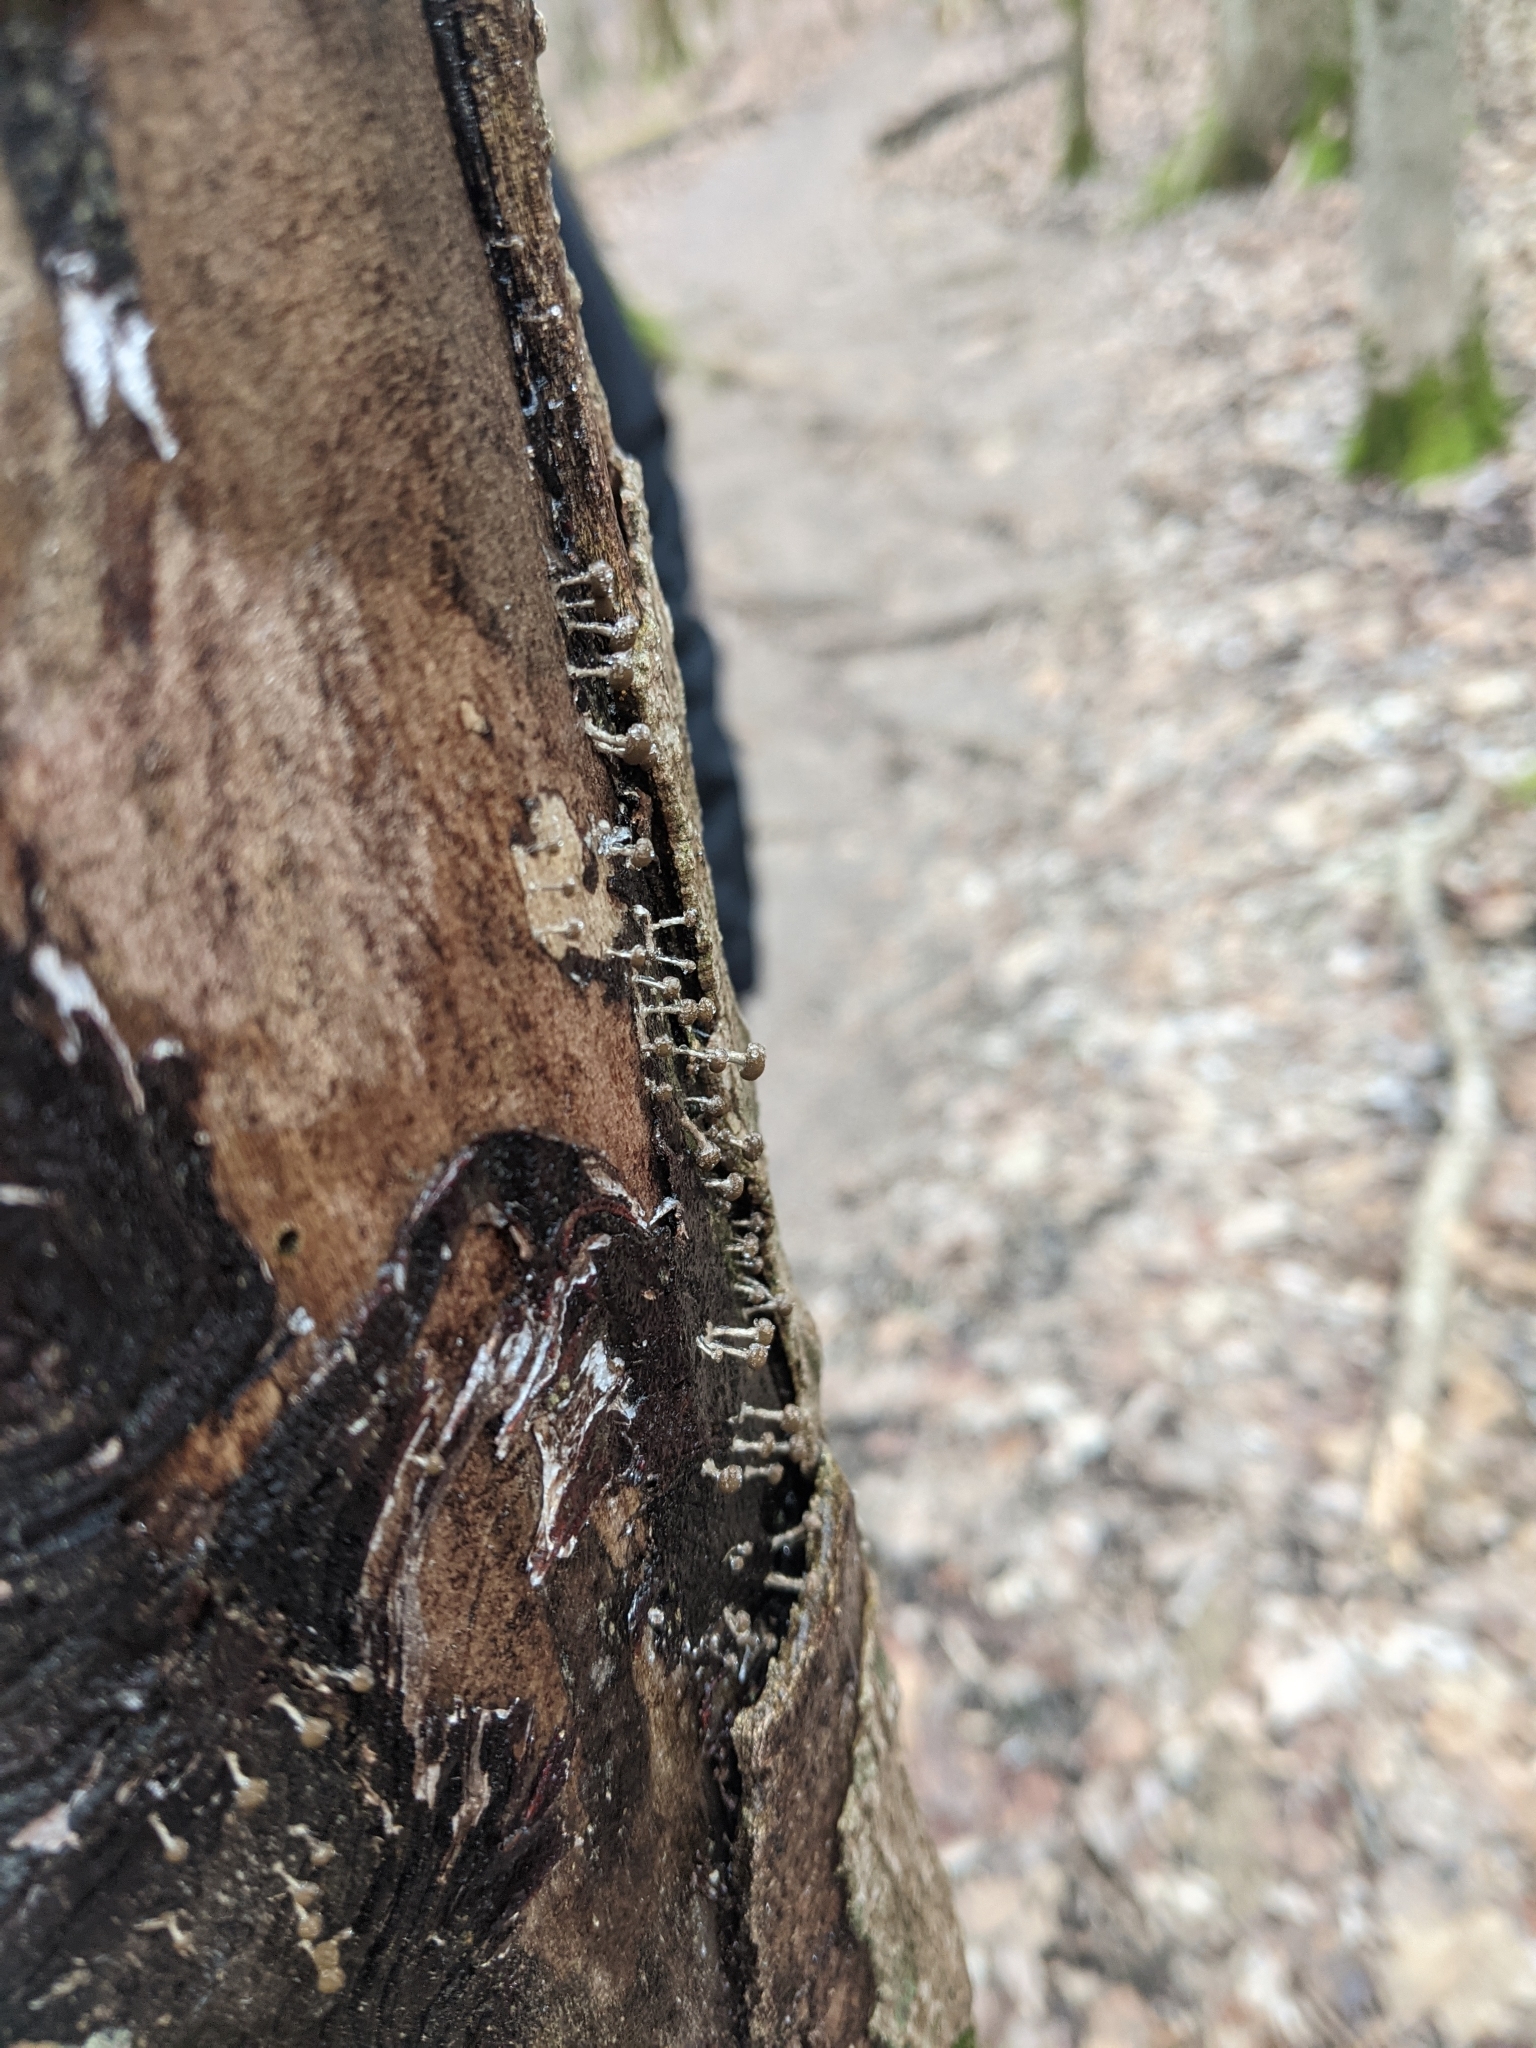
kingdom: Fungi
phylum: Basidiomycota
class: Atractiellomycetes
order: Atractiellales
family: Phleogenaceae
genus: Phleogena
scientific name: Phleogena faginea
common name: Fenugreek stalkball
